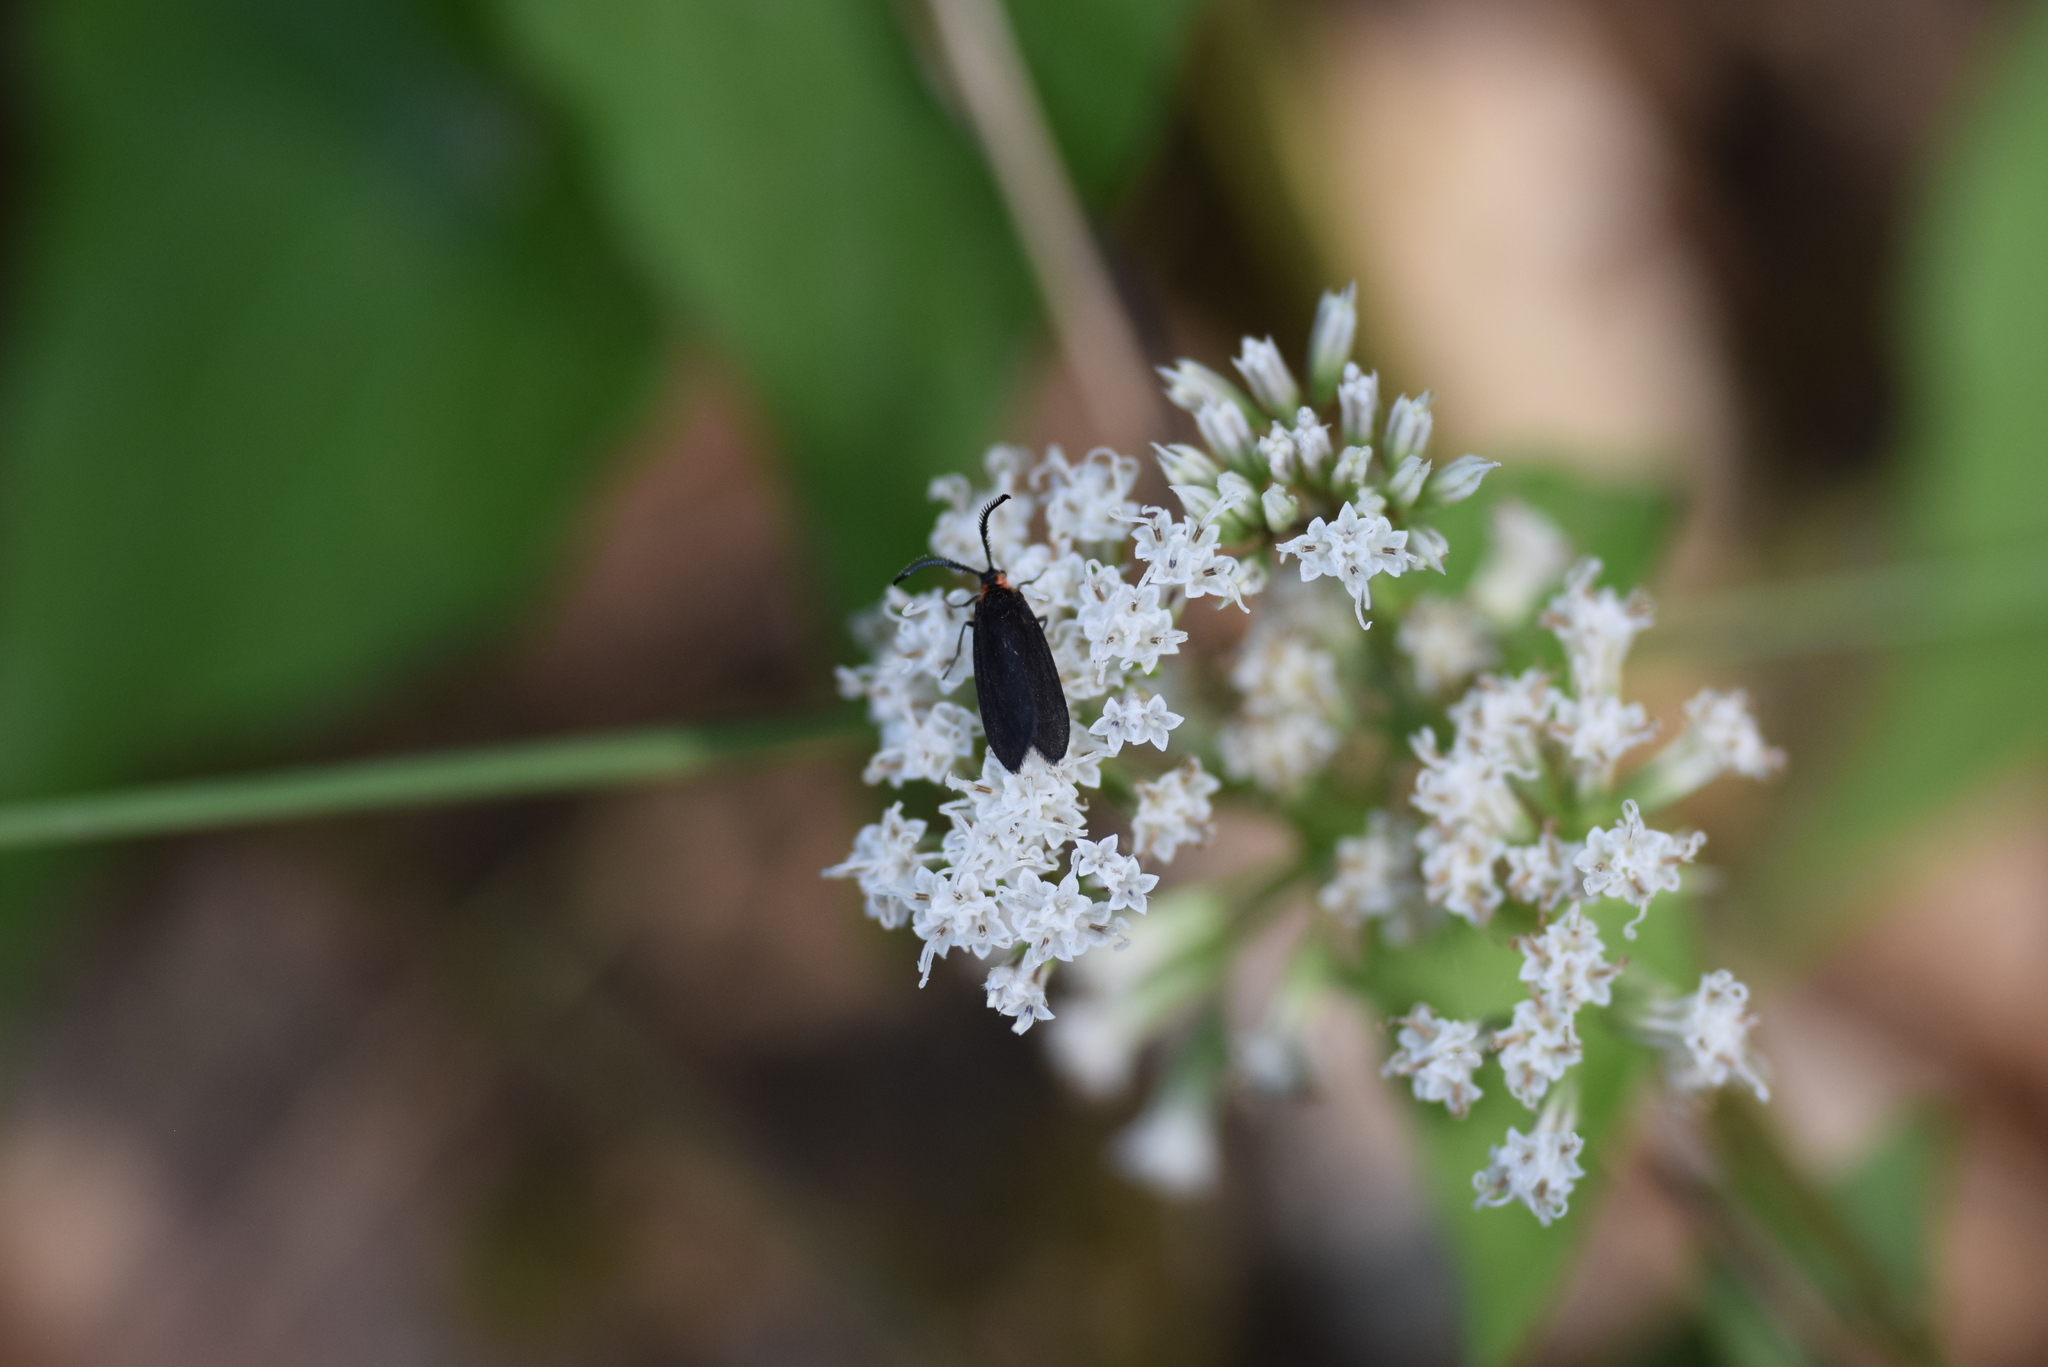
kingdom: Plantae
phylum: Tracheophyta
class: Magnoliopsida
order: Asterales
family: Asteraceae
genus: Mikania
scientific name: Mikania scandens
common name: Climbing hempvine
